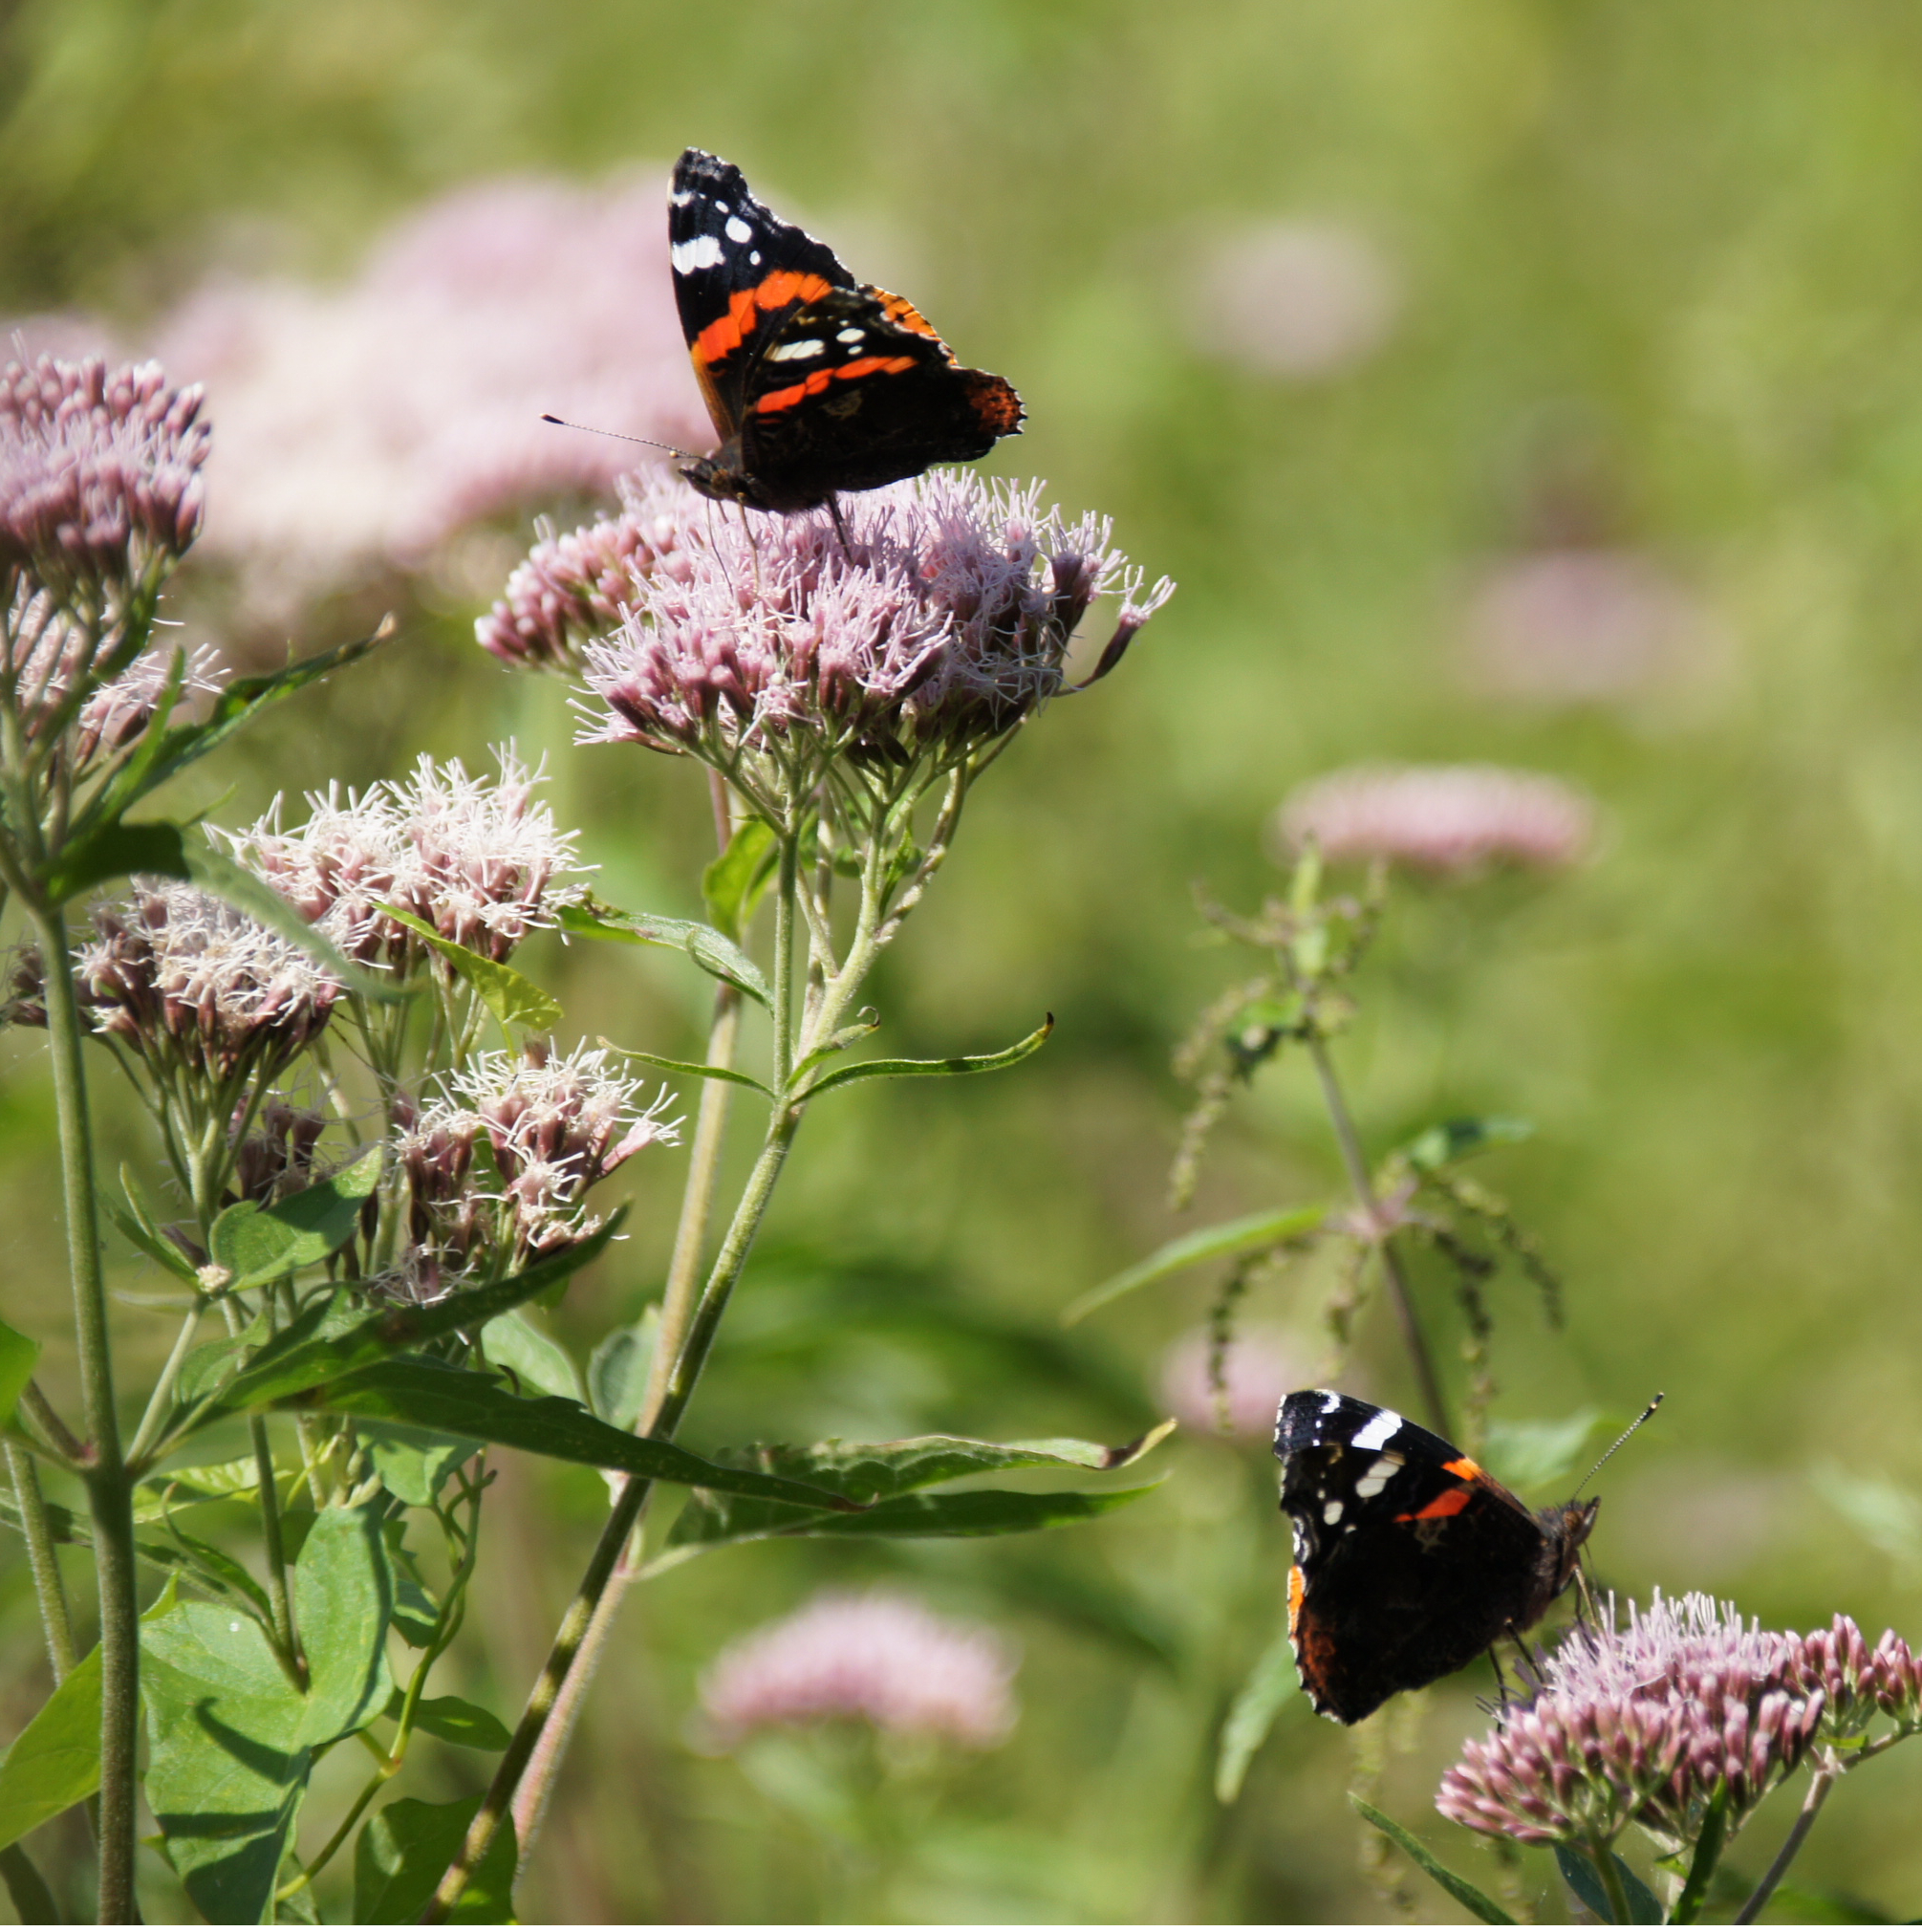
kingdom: Animalia
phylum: Arthropoda
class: Insecta
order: Lepidoptera
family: Nymphalidae
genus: Vanessa
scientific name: Vanessa atalanta
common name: Red admiral
